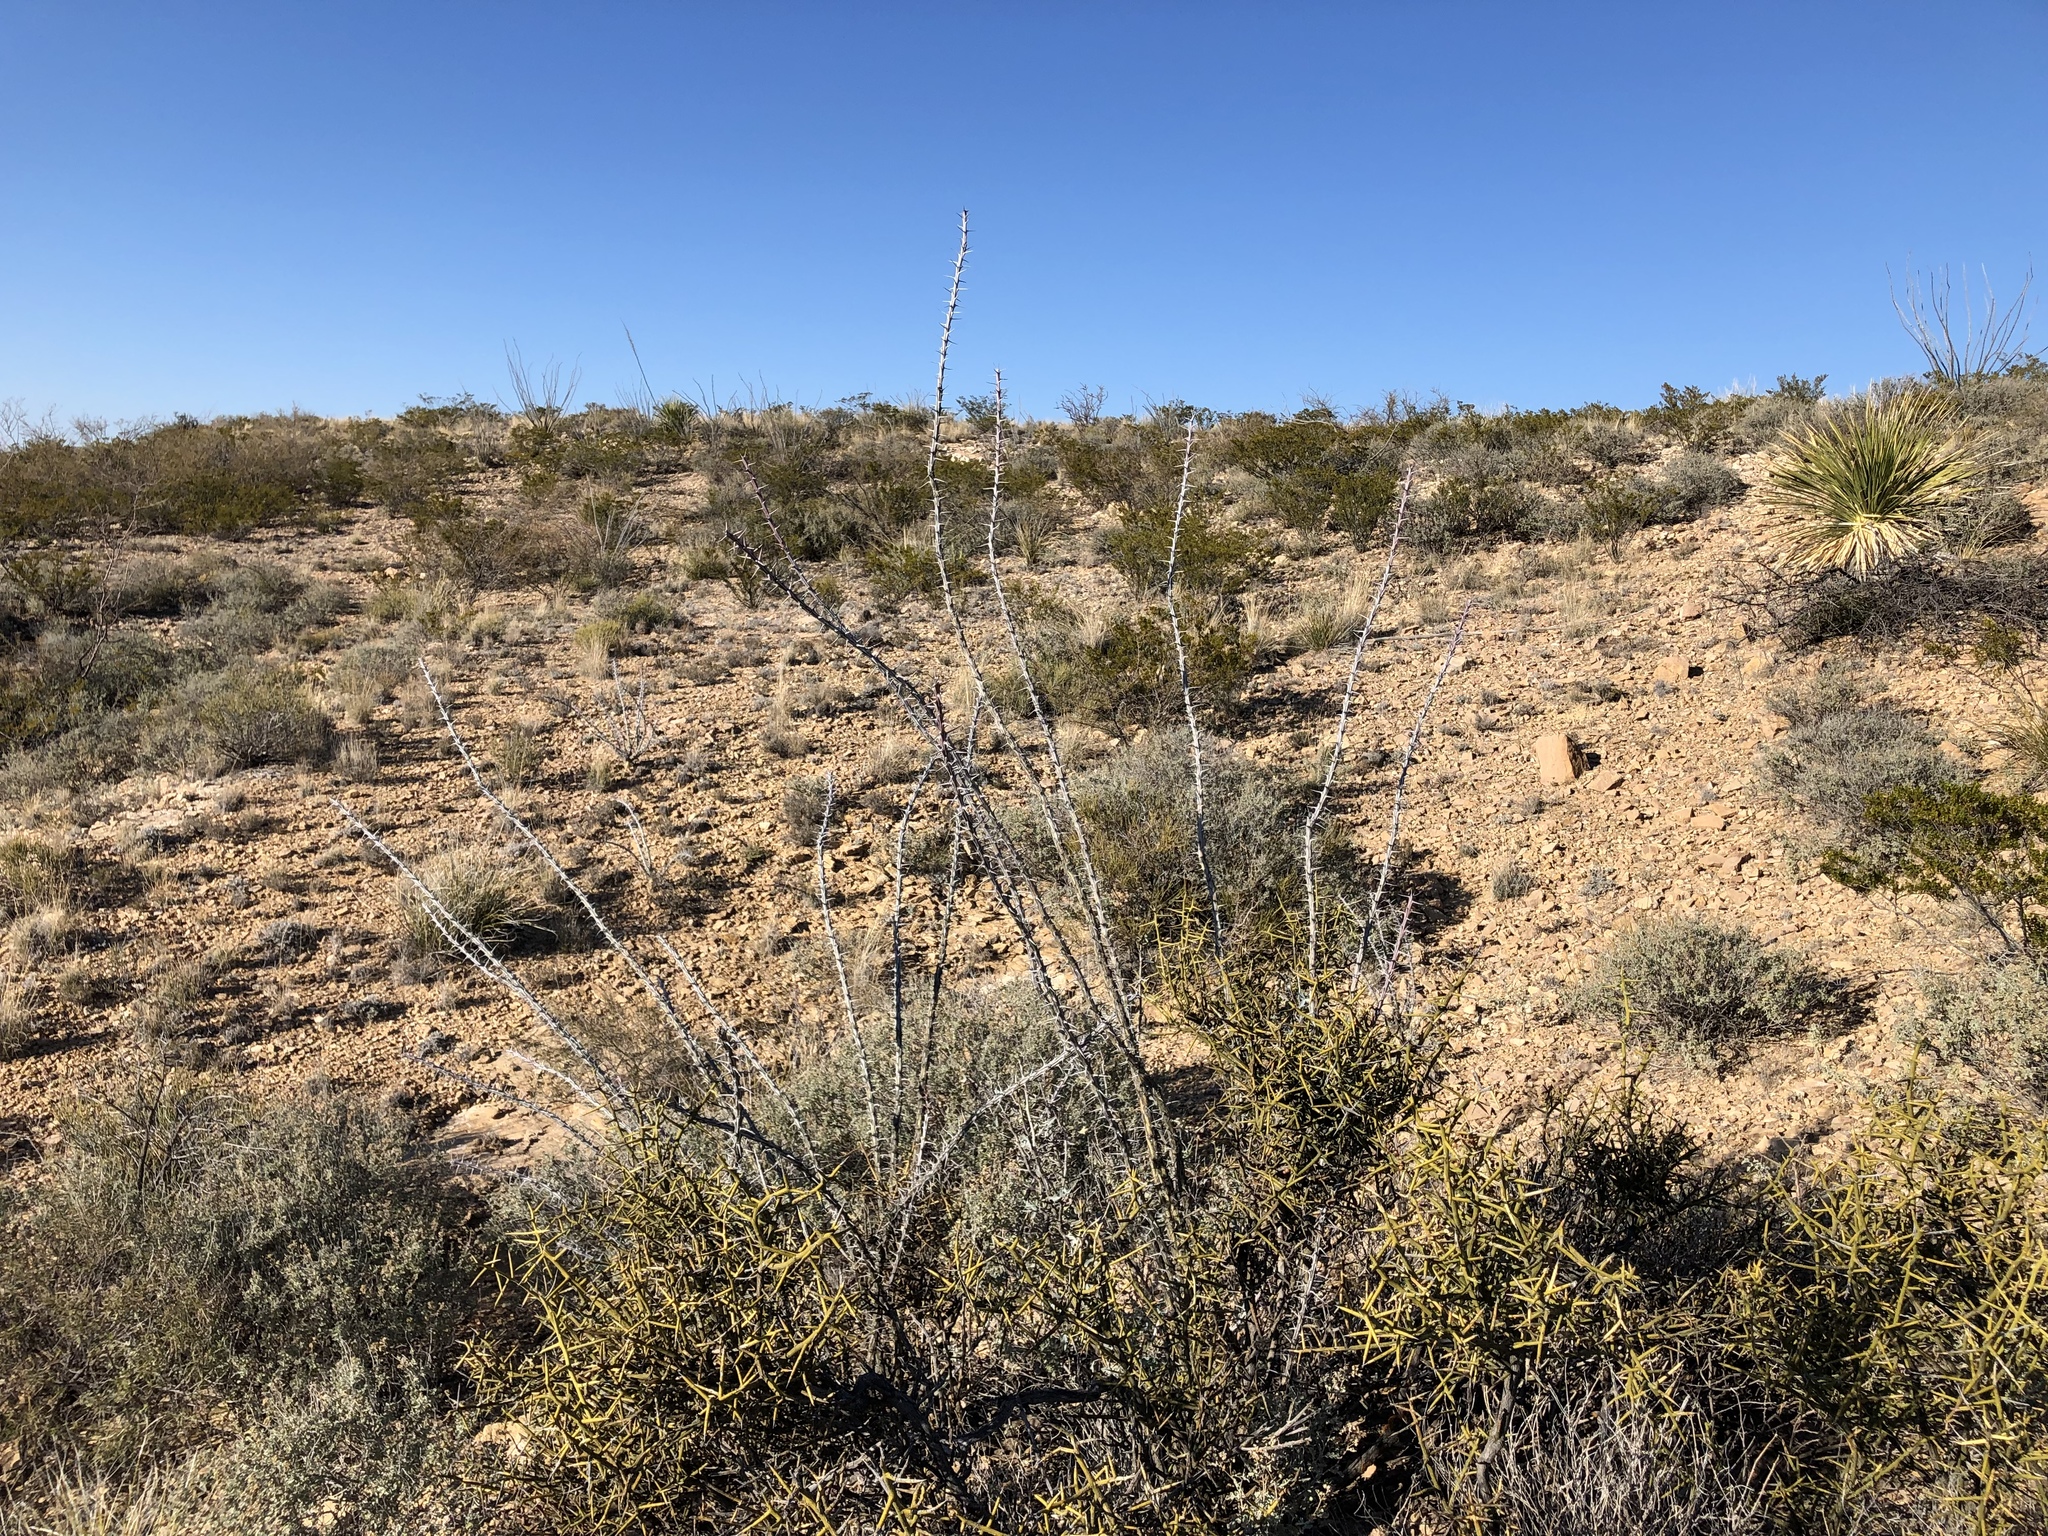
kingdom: Plantae
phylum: Tracheophyta
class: Magnoliopsida
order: Ericales
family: Fouquieriaceae
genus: Fouquieria
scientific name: Fouquieria splendens
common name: Vine-cactus
